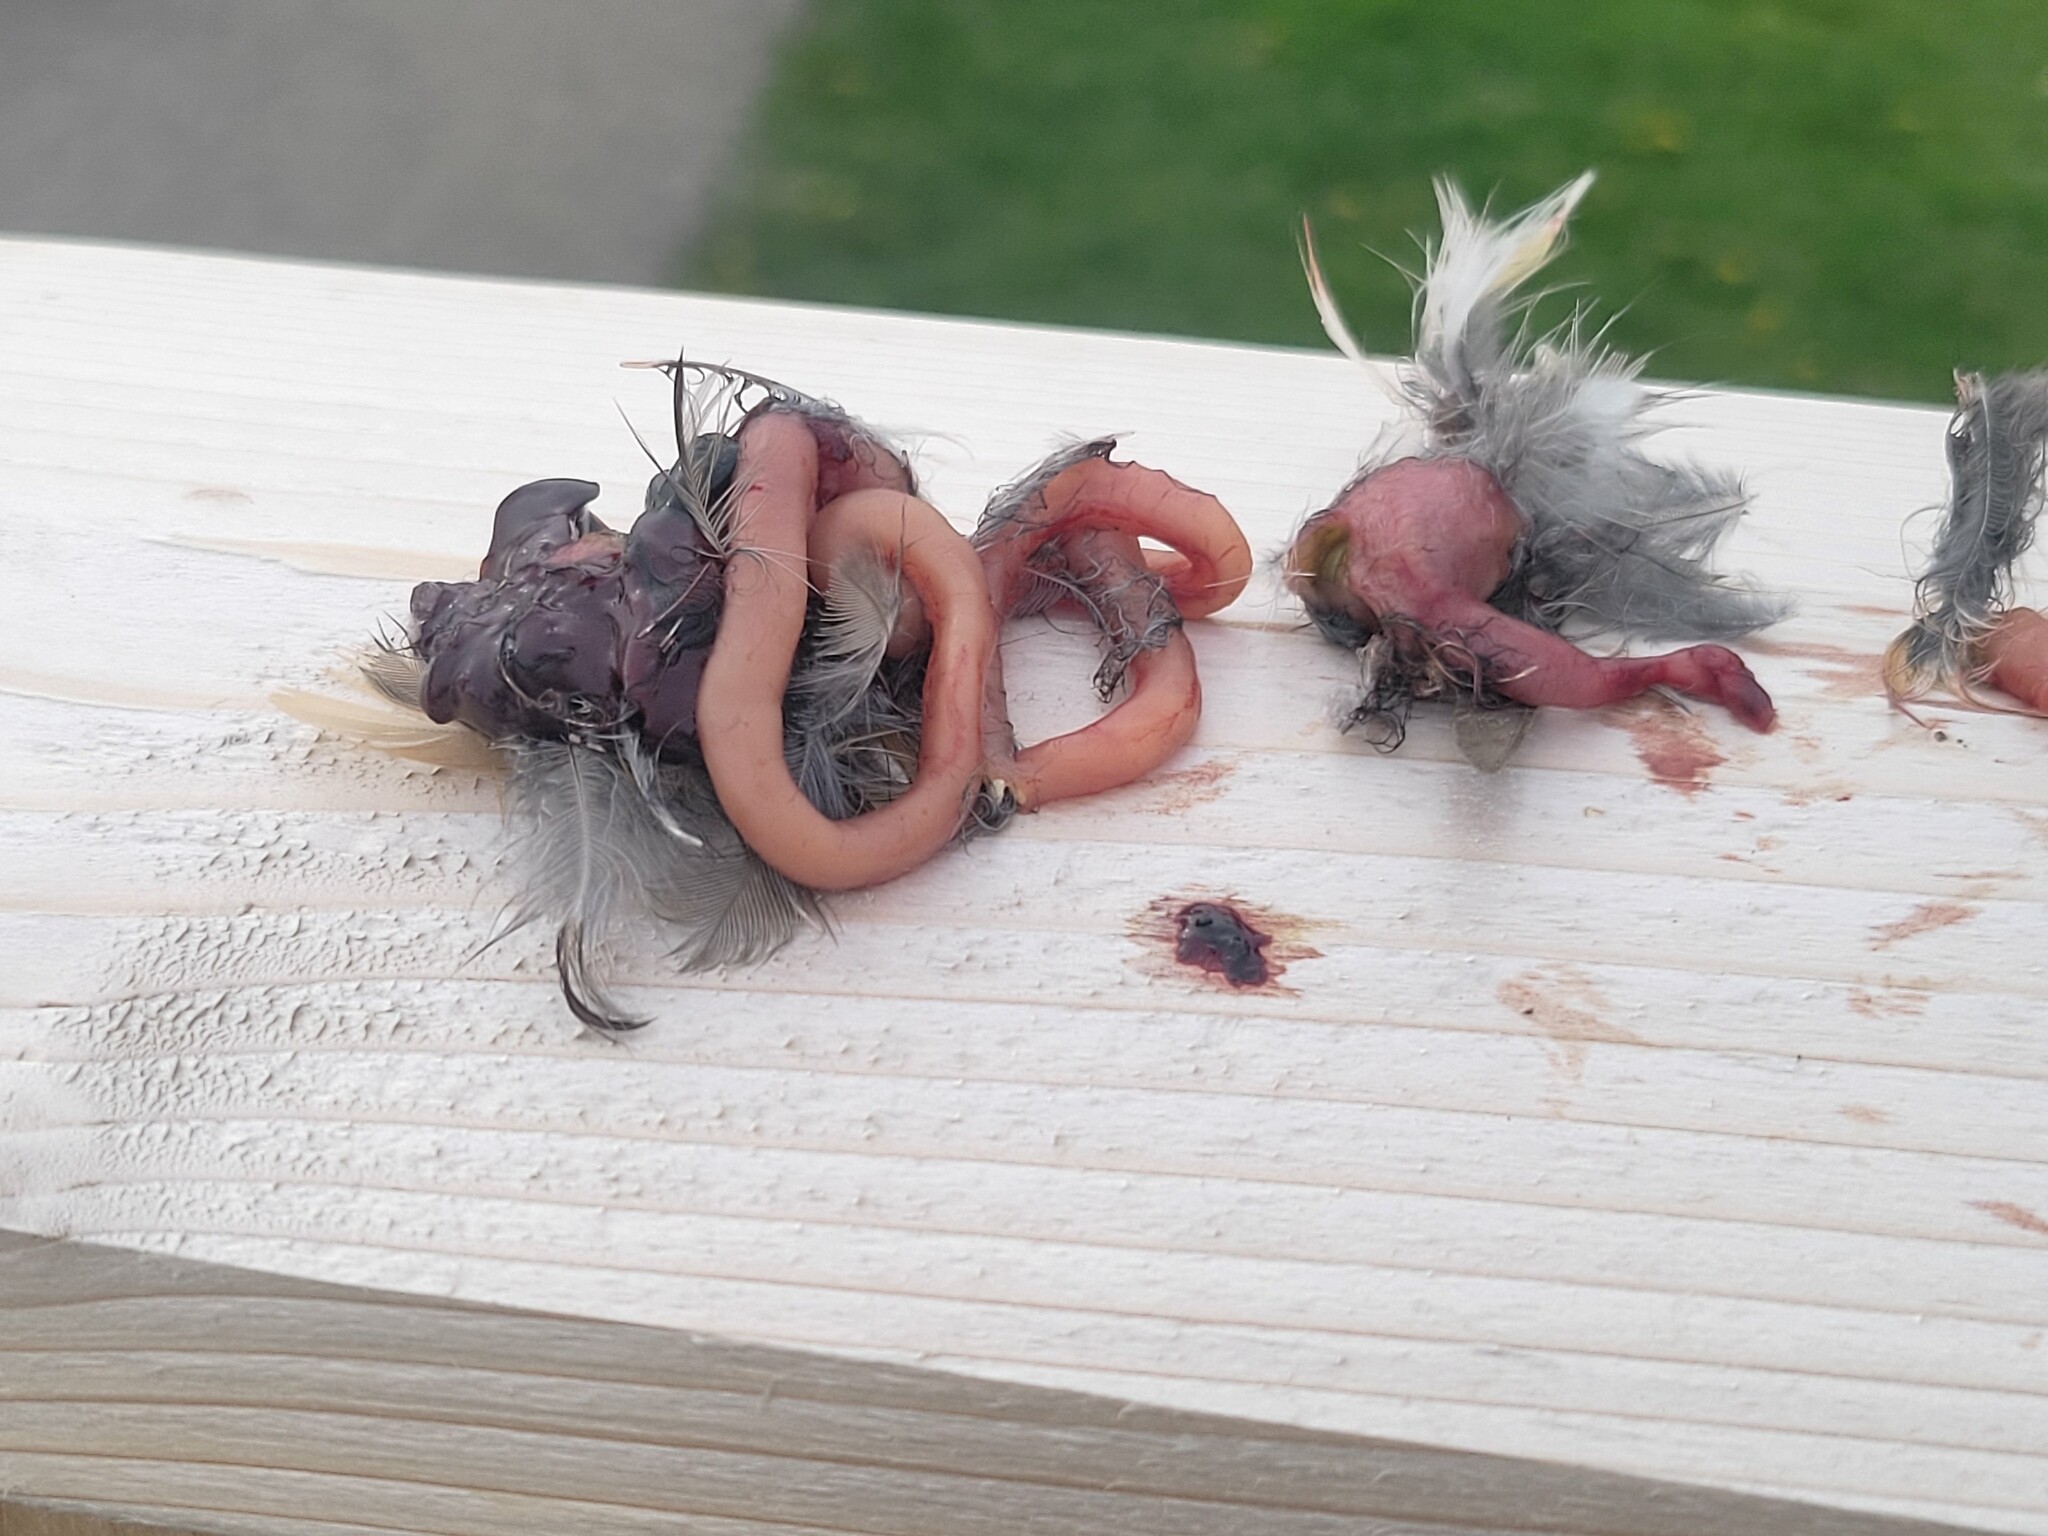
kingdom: Animalia
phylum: Chordata
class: Aves
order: Passeriformes
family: Turdidae
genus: Turdus
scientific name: Turdus migratorius
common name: American robin
